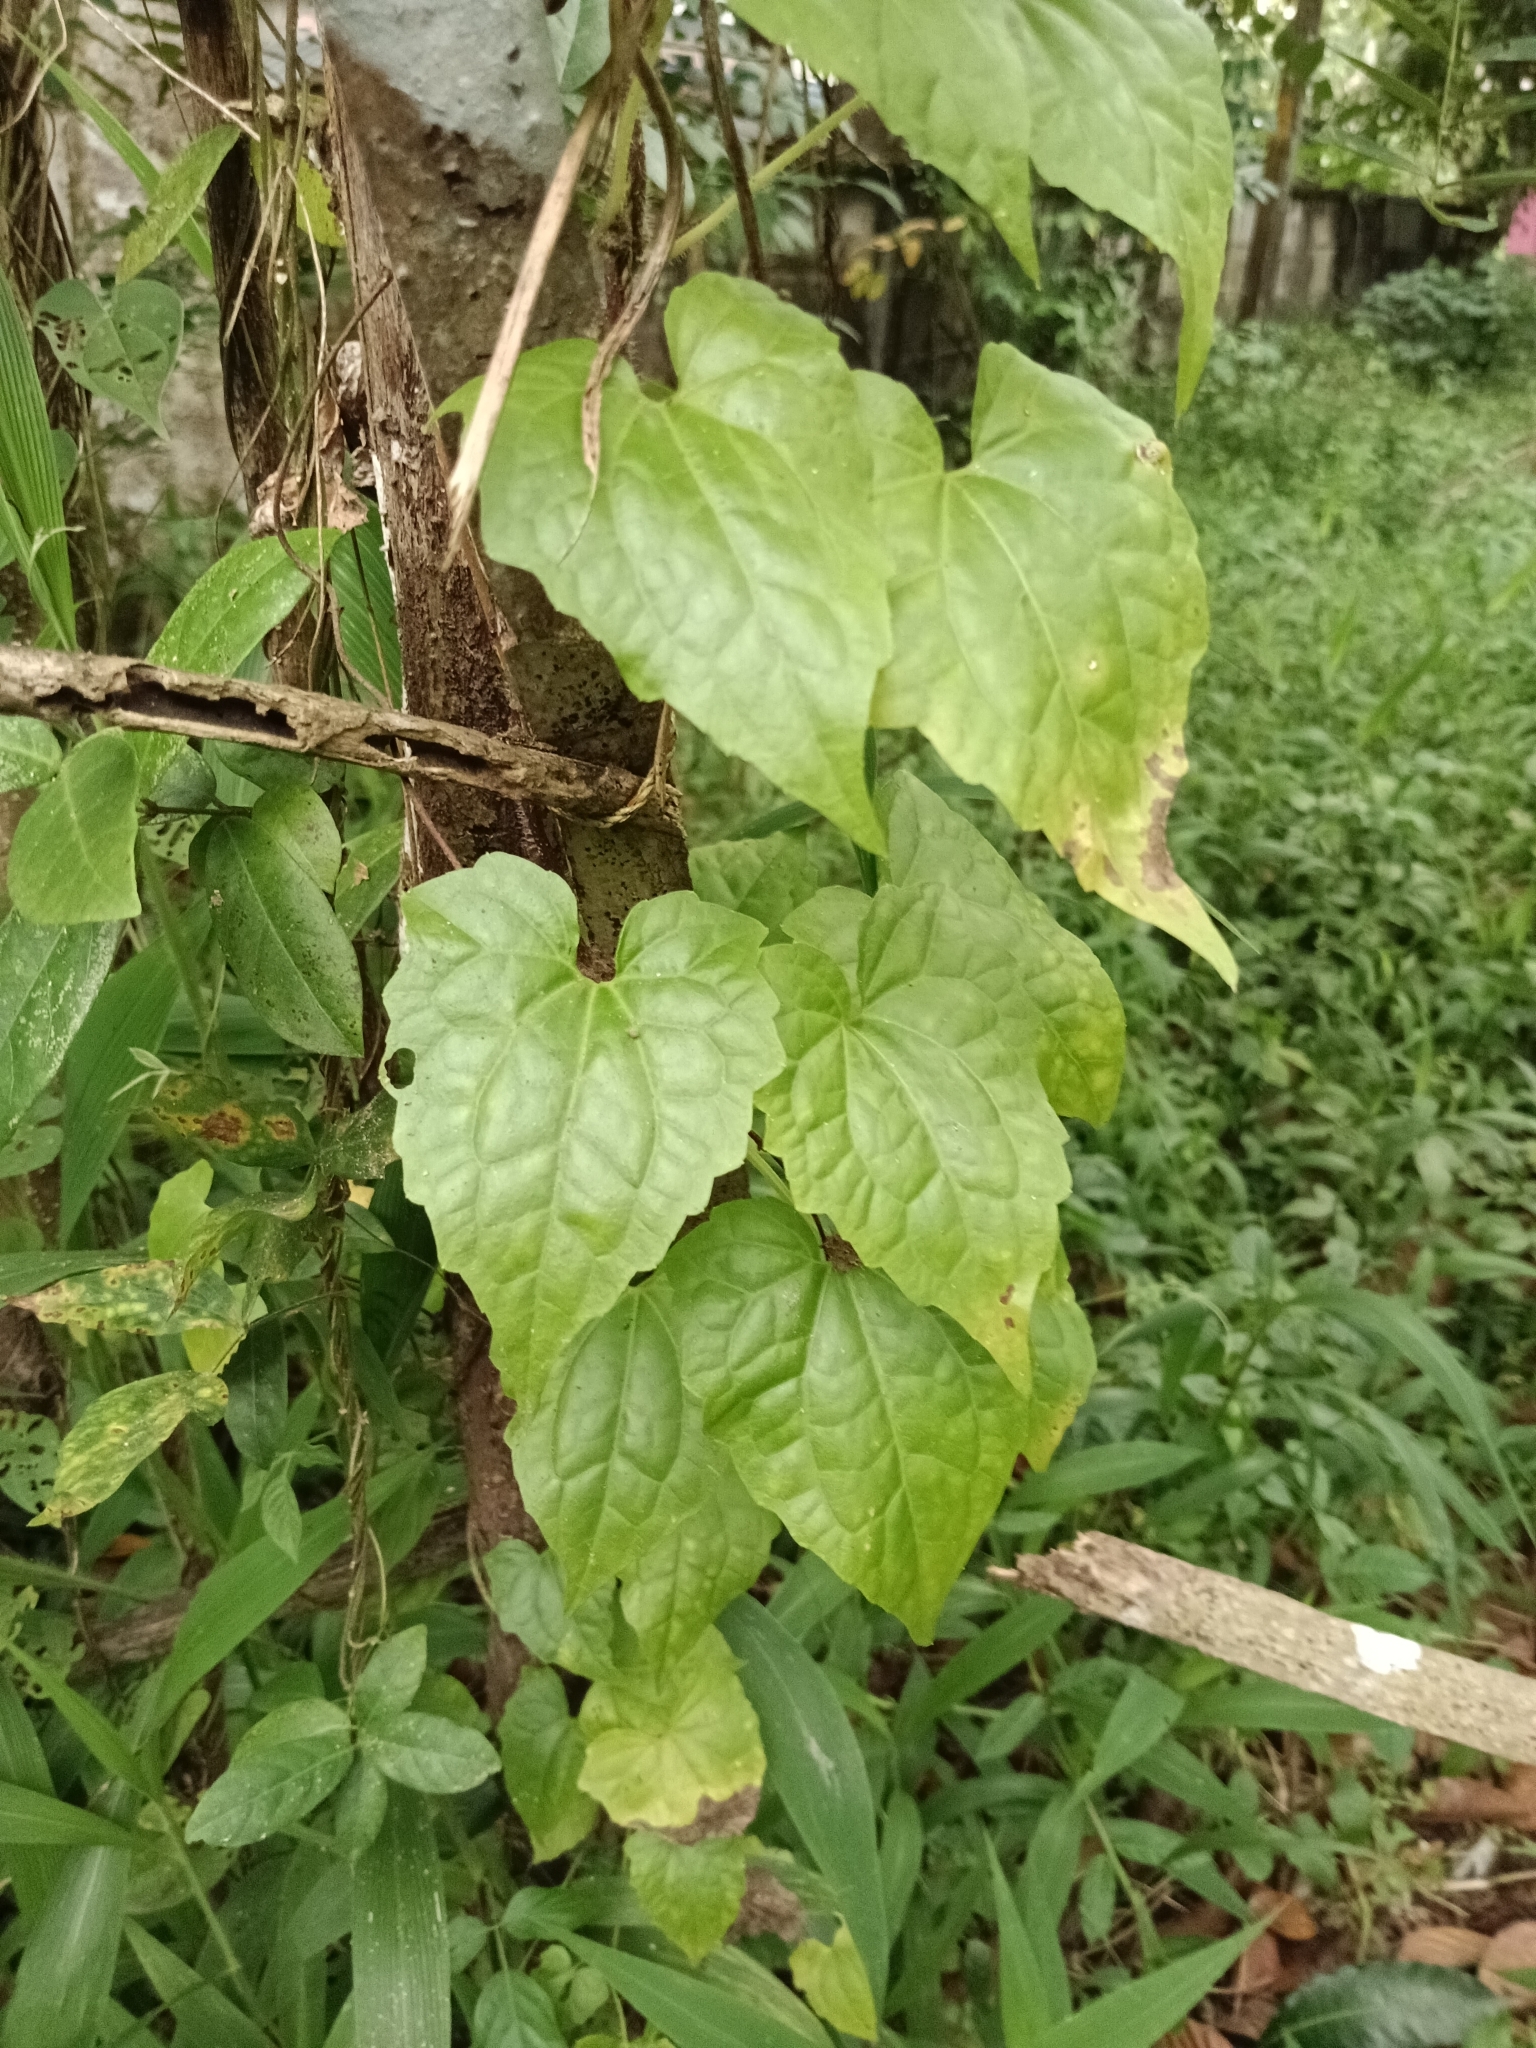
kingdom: Plantae
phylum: Tracheophyta
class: Magnoliopsida
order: Asterales
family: Asteraceae
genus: Mikania
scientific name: Mikania micrantha
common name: Mile-a-minute
